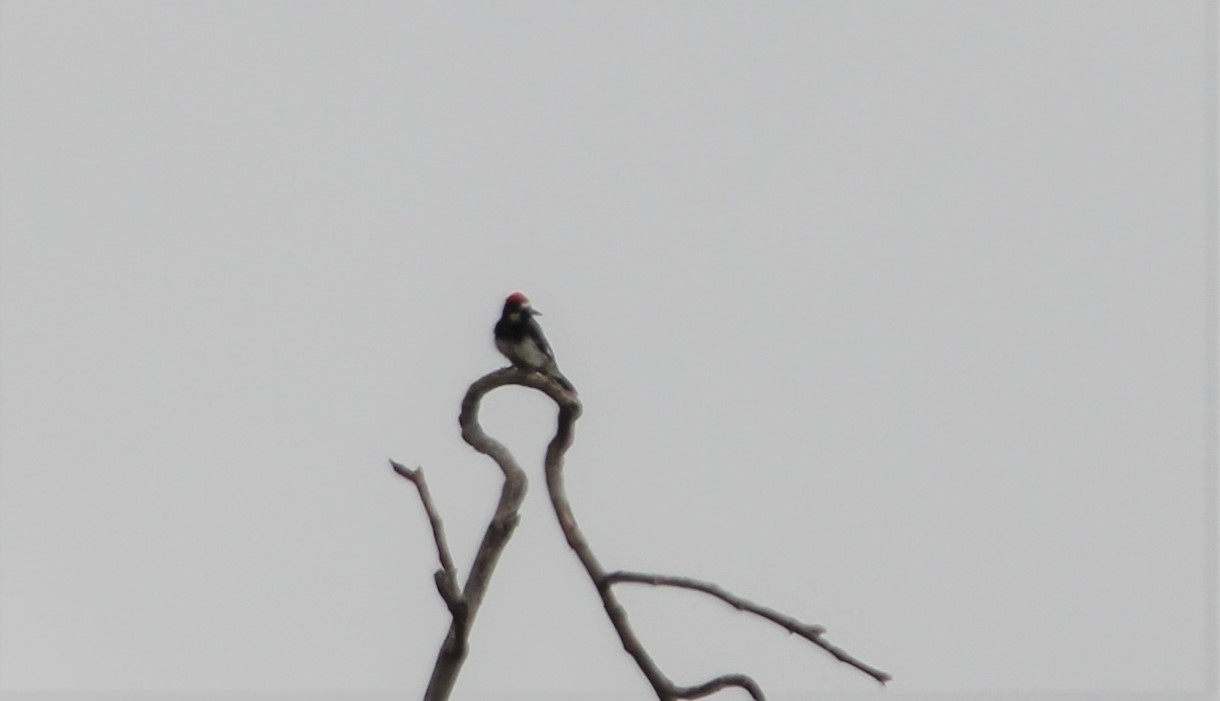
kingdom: Animalia
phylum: Chordata
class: Aves
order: Piciformes
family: Picidae
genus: Melanerpes
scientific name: Melanerpes formicivorus
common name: Acorn woodpecker
